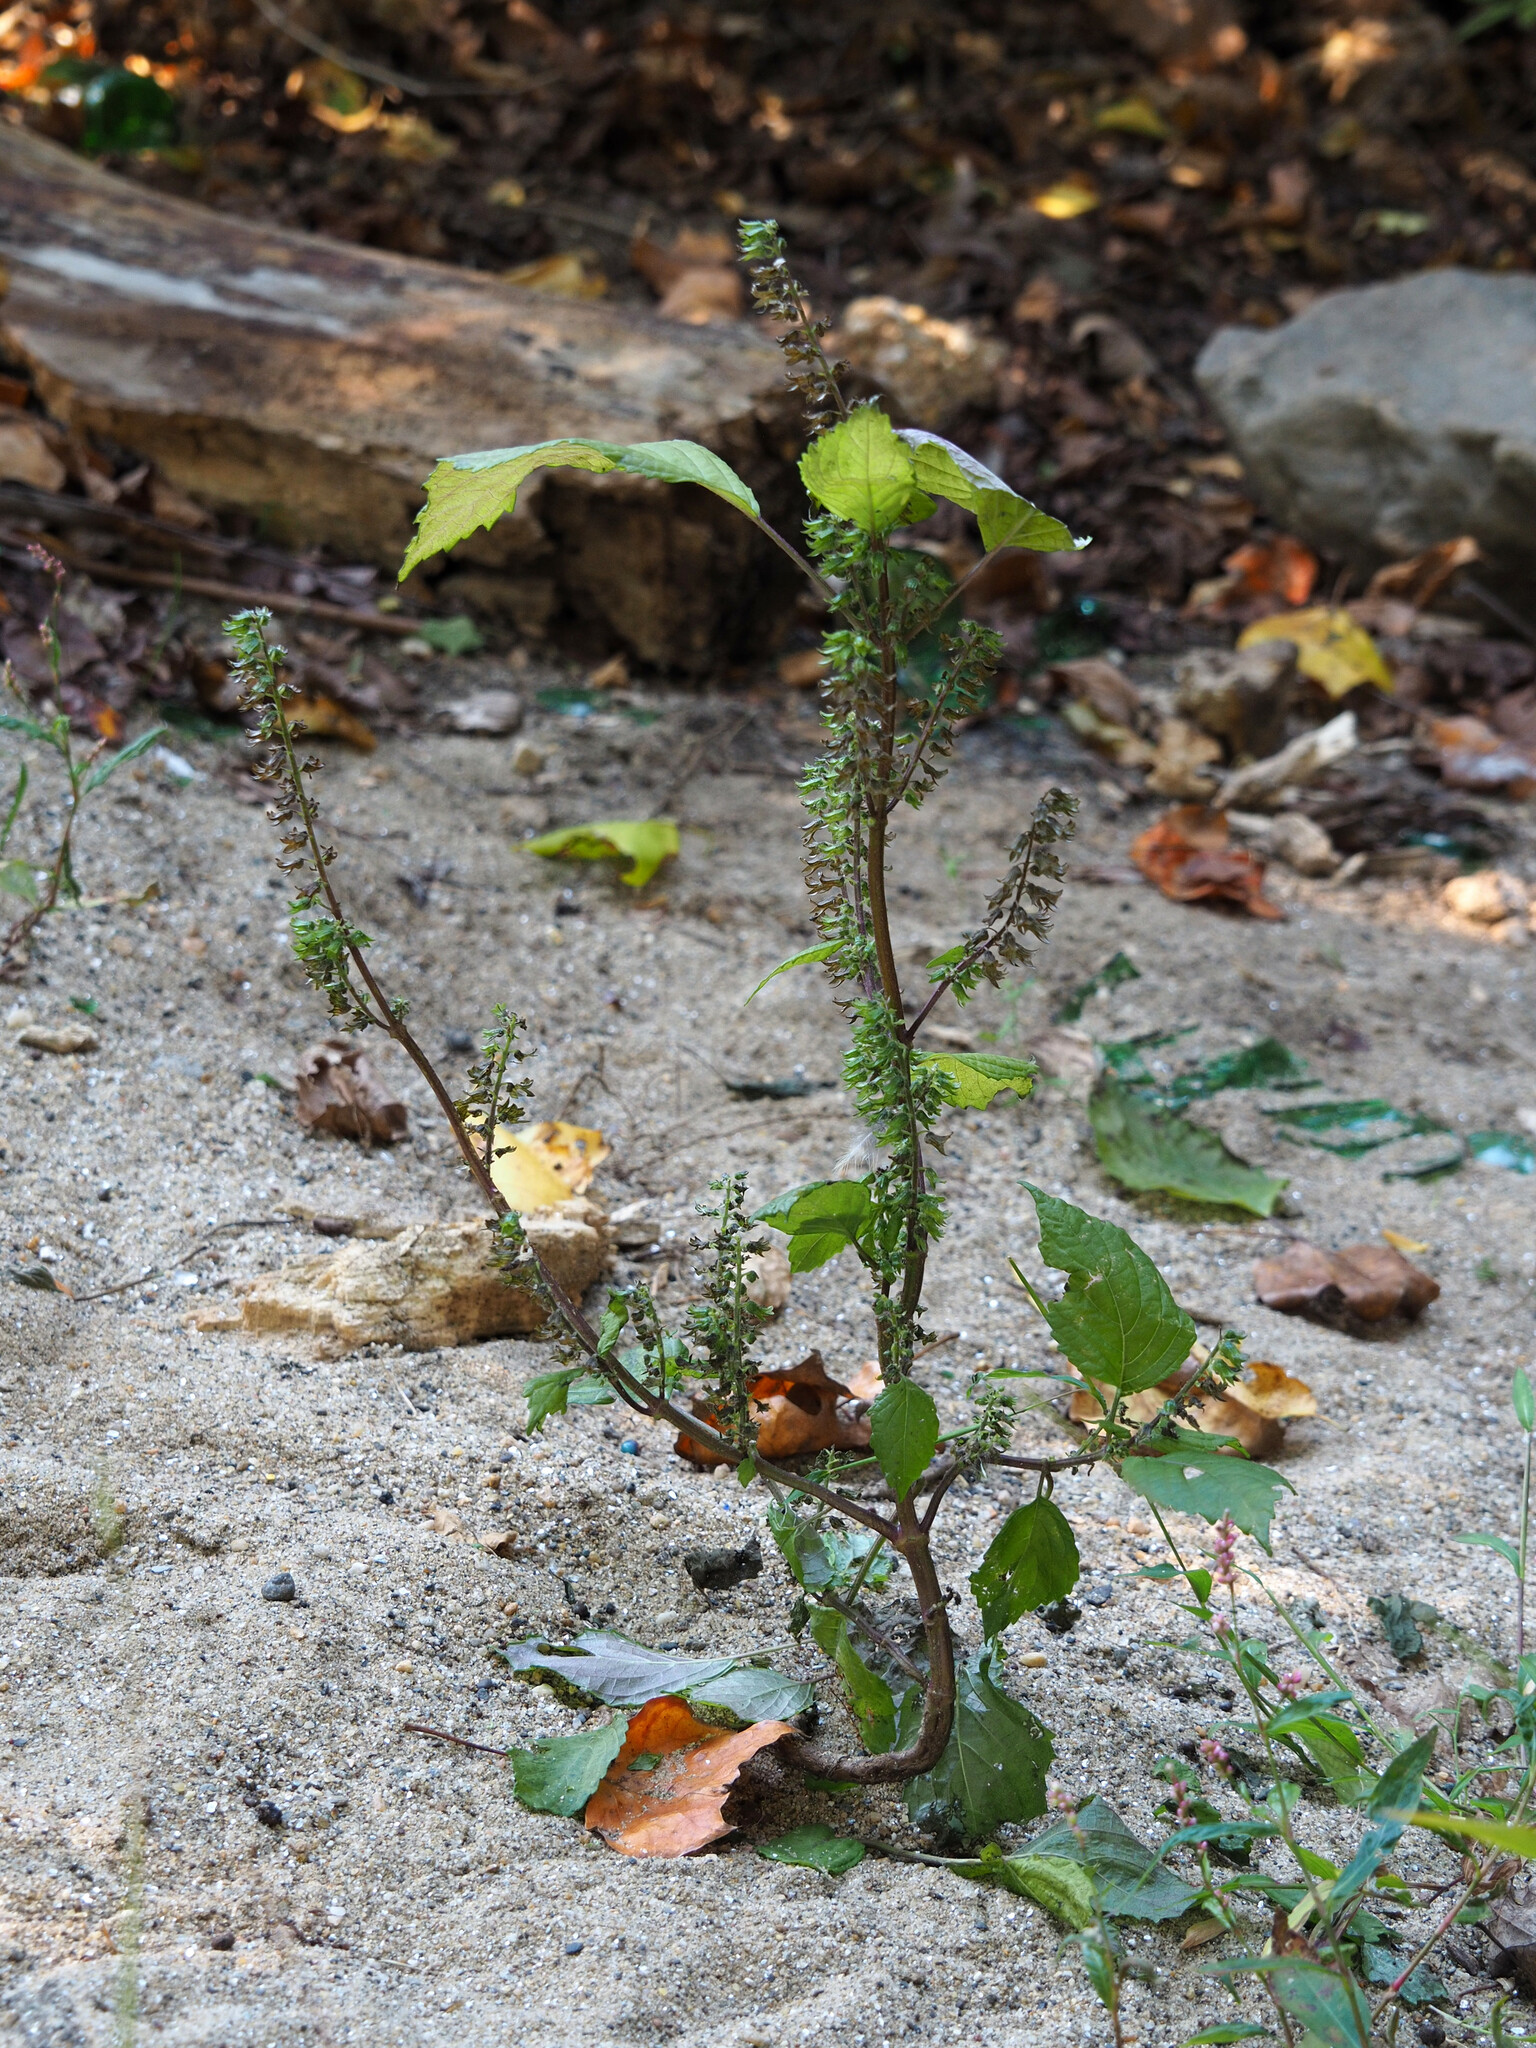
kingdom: Plantae
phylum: Tracheophyta
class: Magnoliopsida
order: Lamiales
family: Lamiaceae
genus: Perilla
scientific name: Perilla frutescens
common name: Perilla
